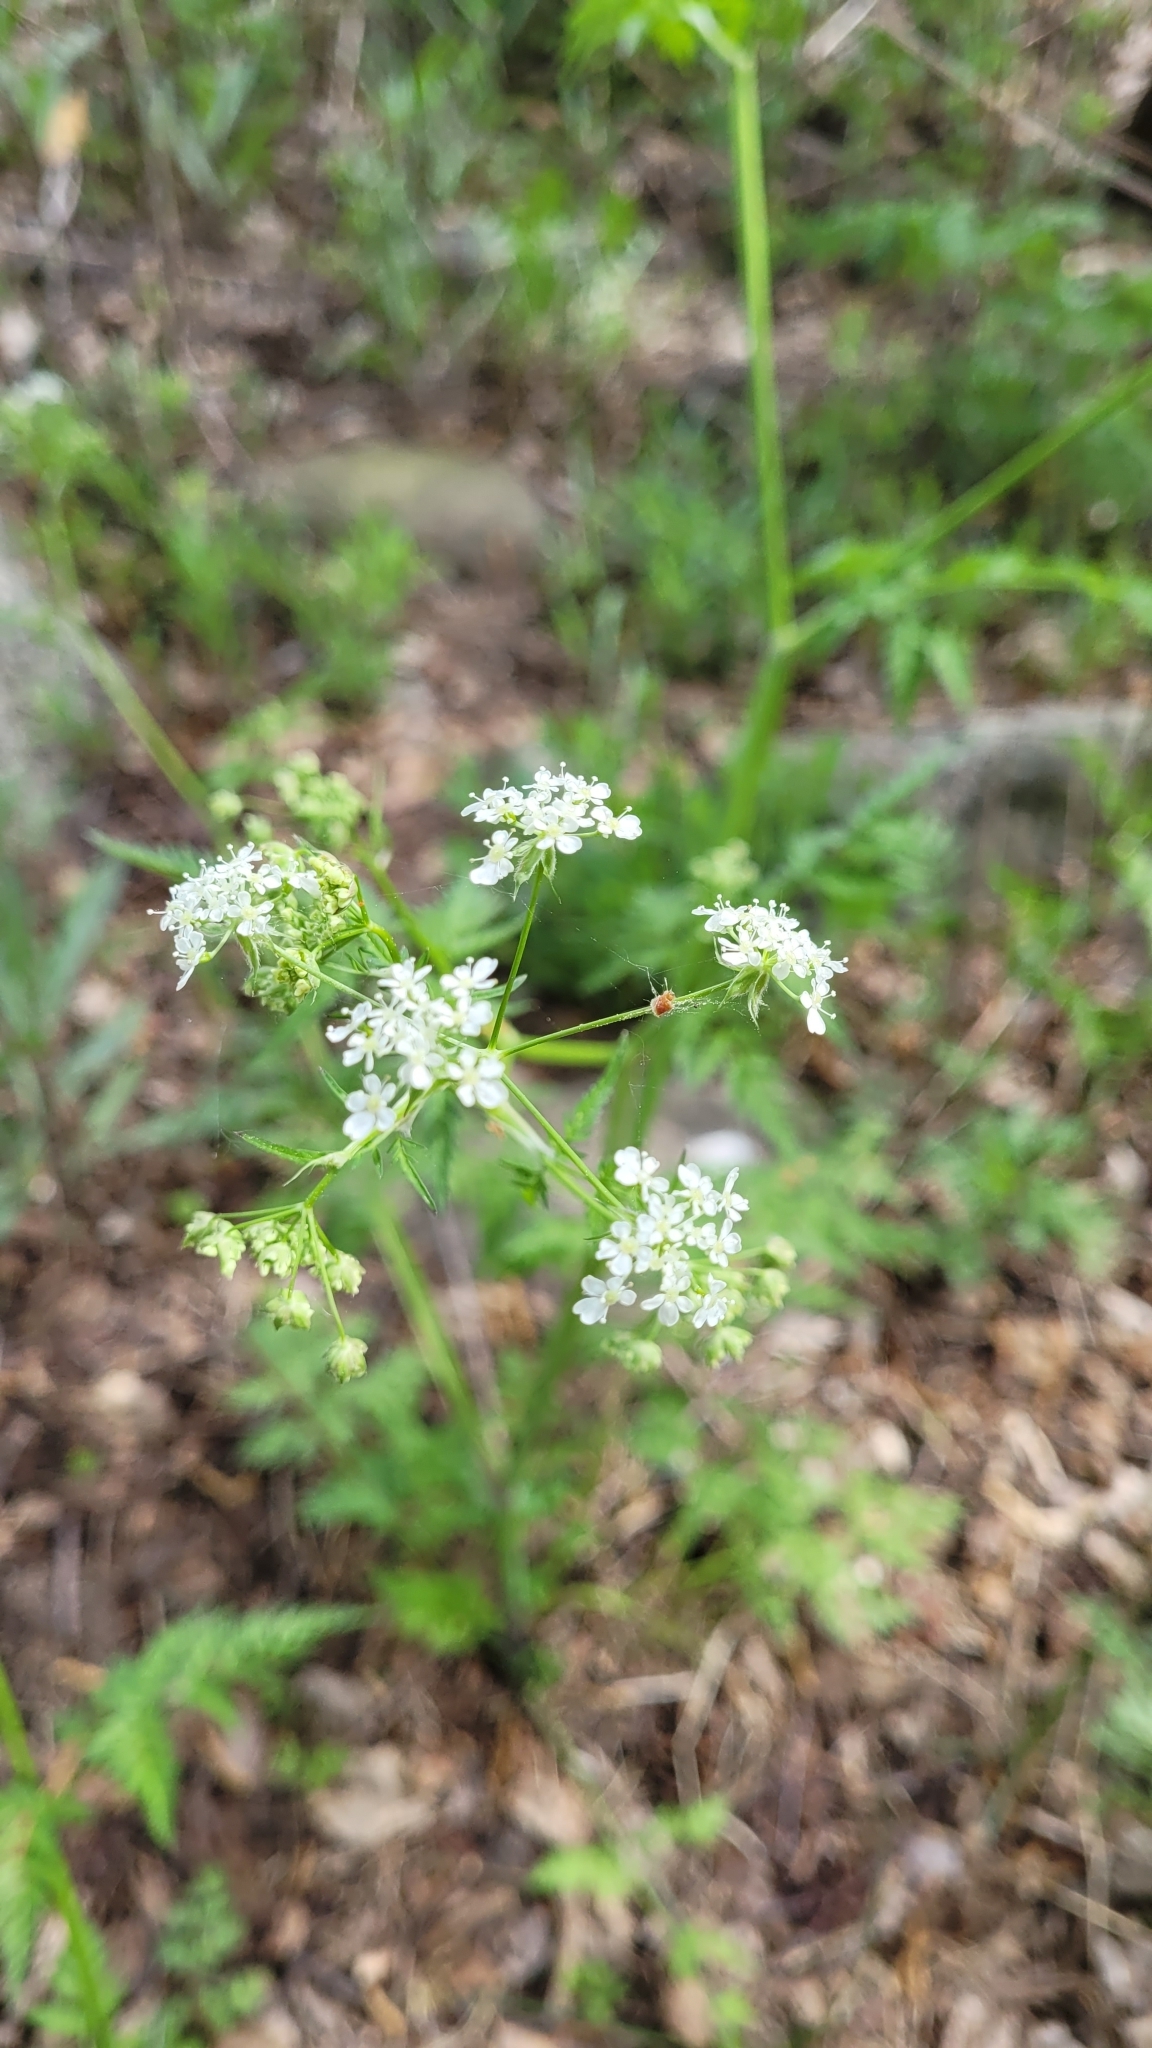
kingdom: Plantae
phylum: Tracheophyta
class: Magnoliopsida
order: Apiales
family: Apiaceae
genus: Anthriscus
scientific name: Anthriscus sylvestris
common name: Cow parsley
